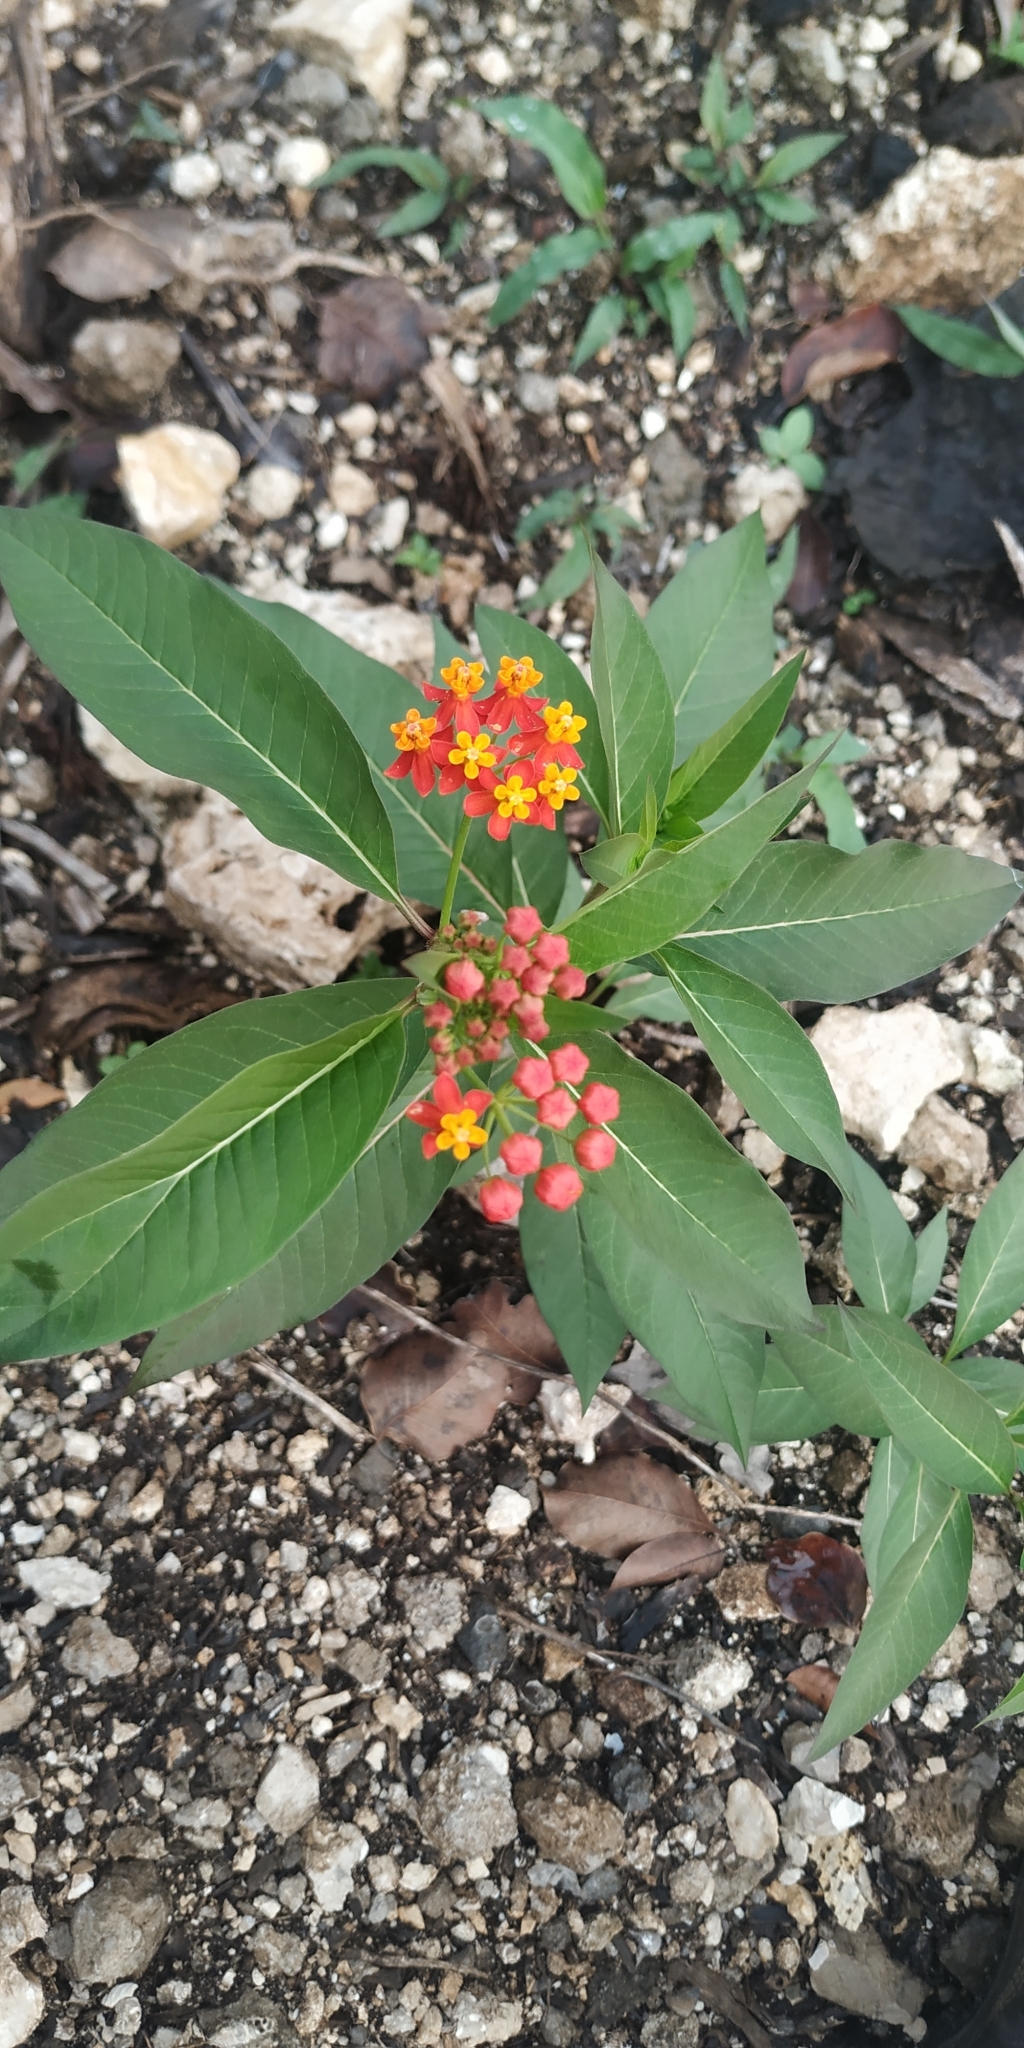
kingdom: Plantae
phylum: Tracheophyta
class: Magnoliopsida
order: Gentianales
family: Apocynaceae
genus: Asclepias
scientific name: Asclepias curassavica
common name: Bloodflower
